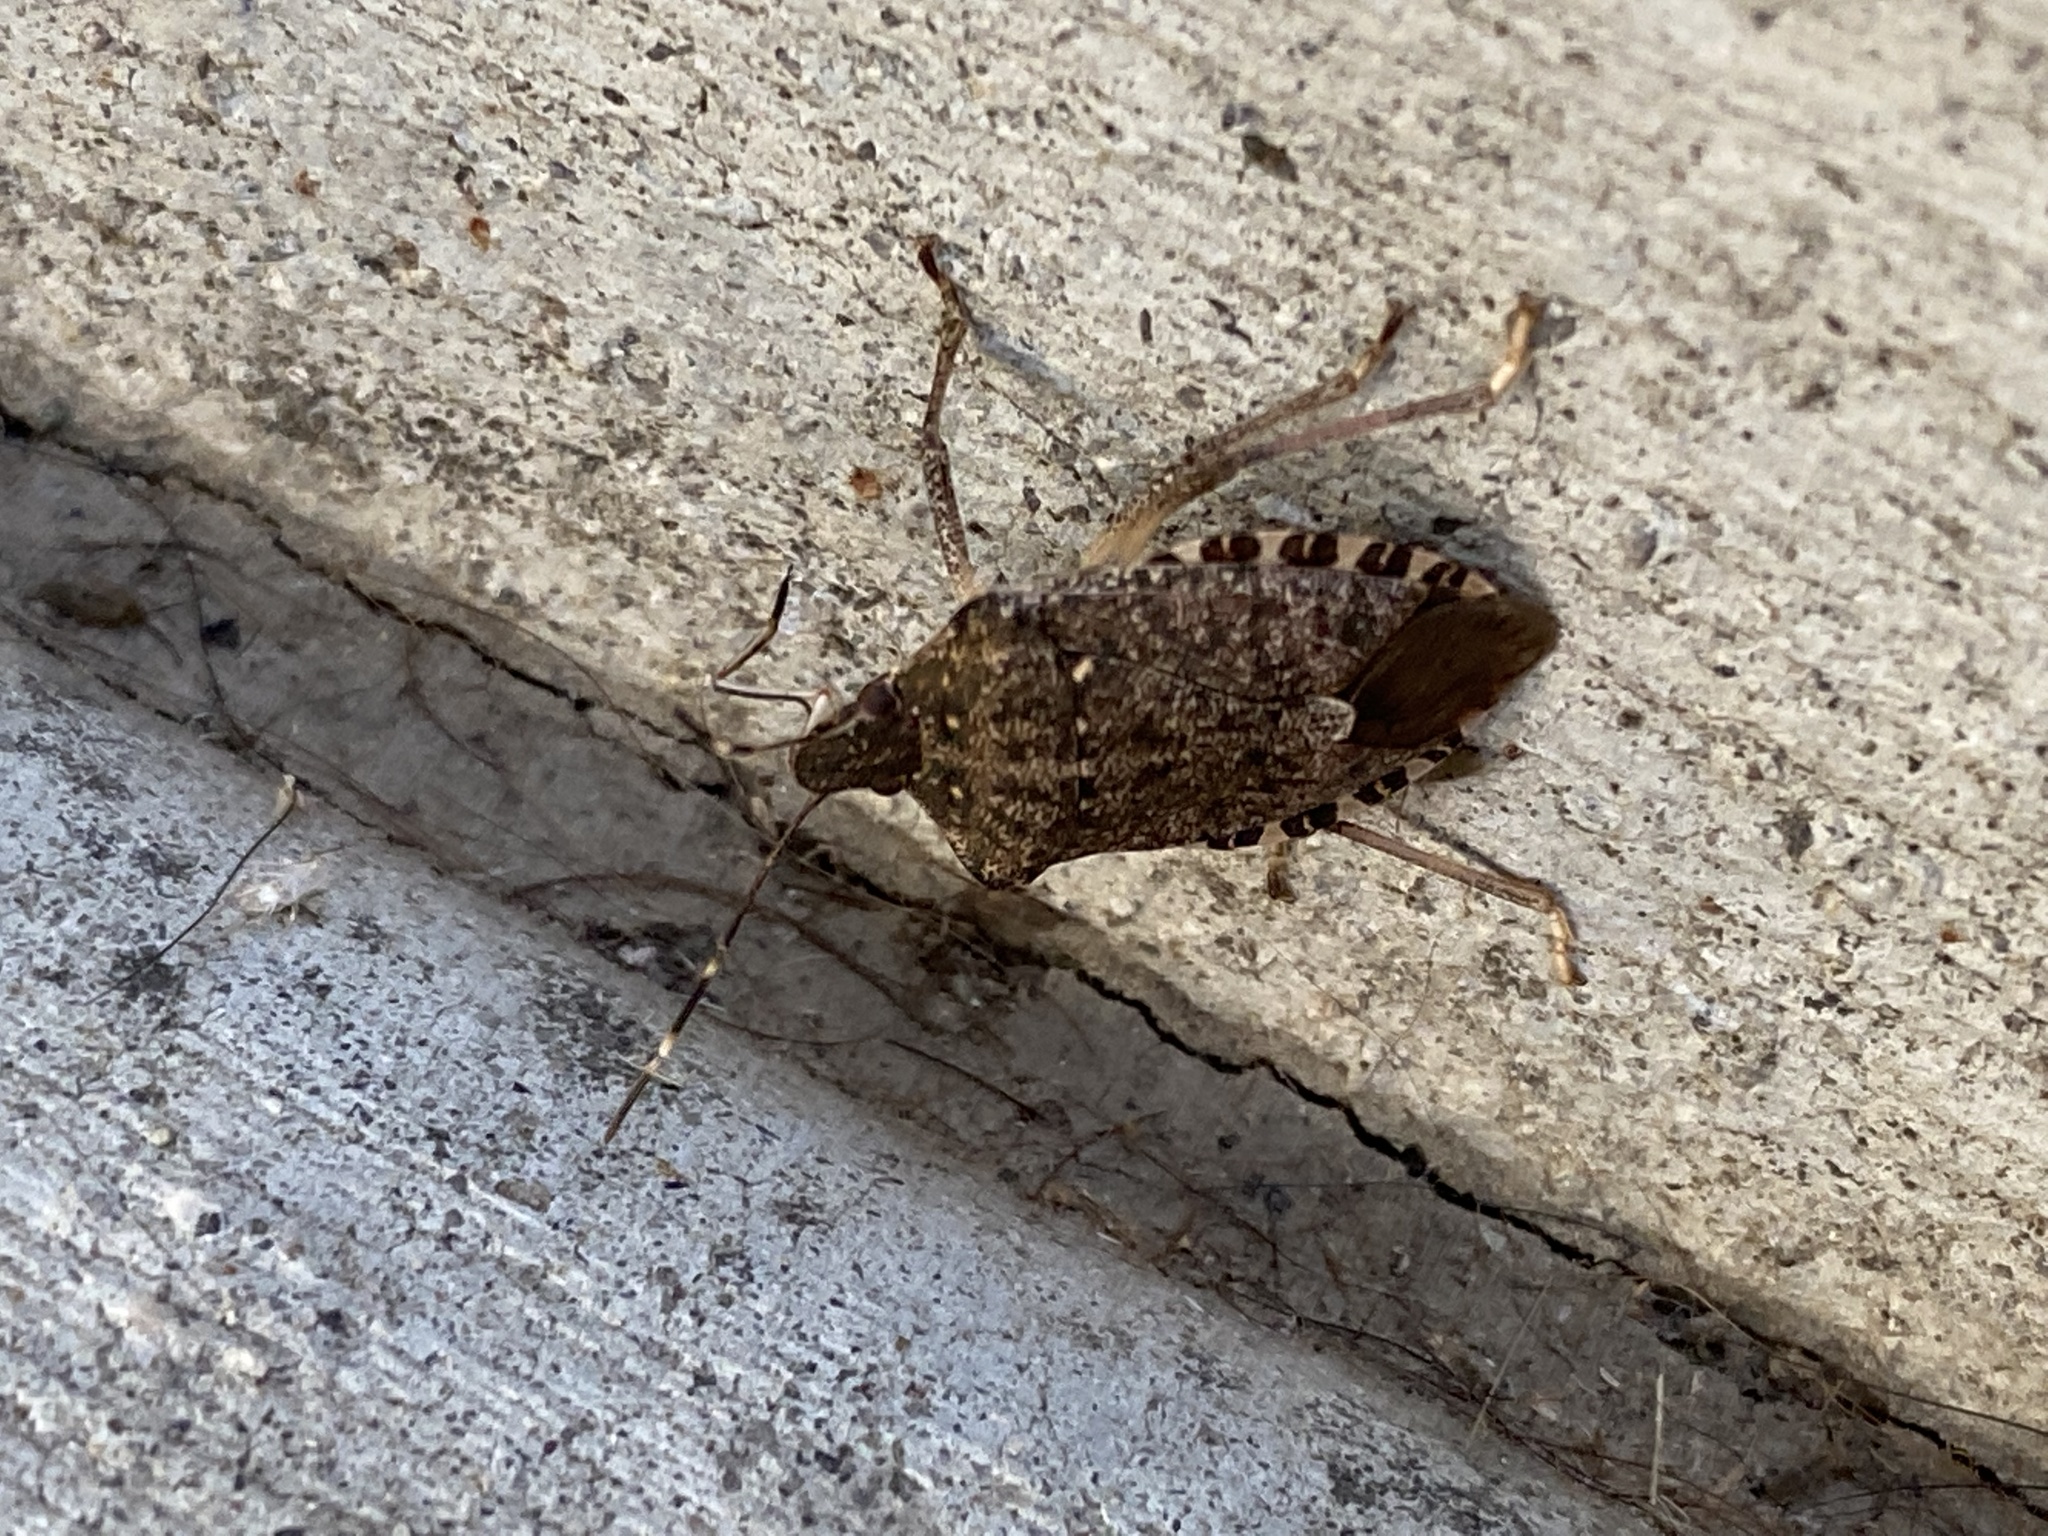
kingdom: Animalia
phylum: Arthropoda
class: Insecta
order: Hemiptera
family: Pentatomidae
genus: Halyomorpha
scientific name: Halyomorpha halys
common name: Brown marmorated stink bug
